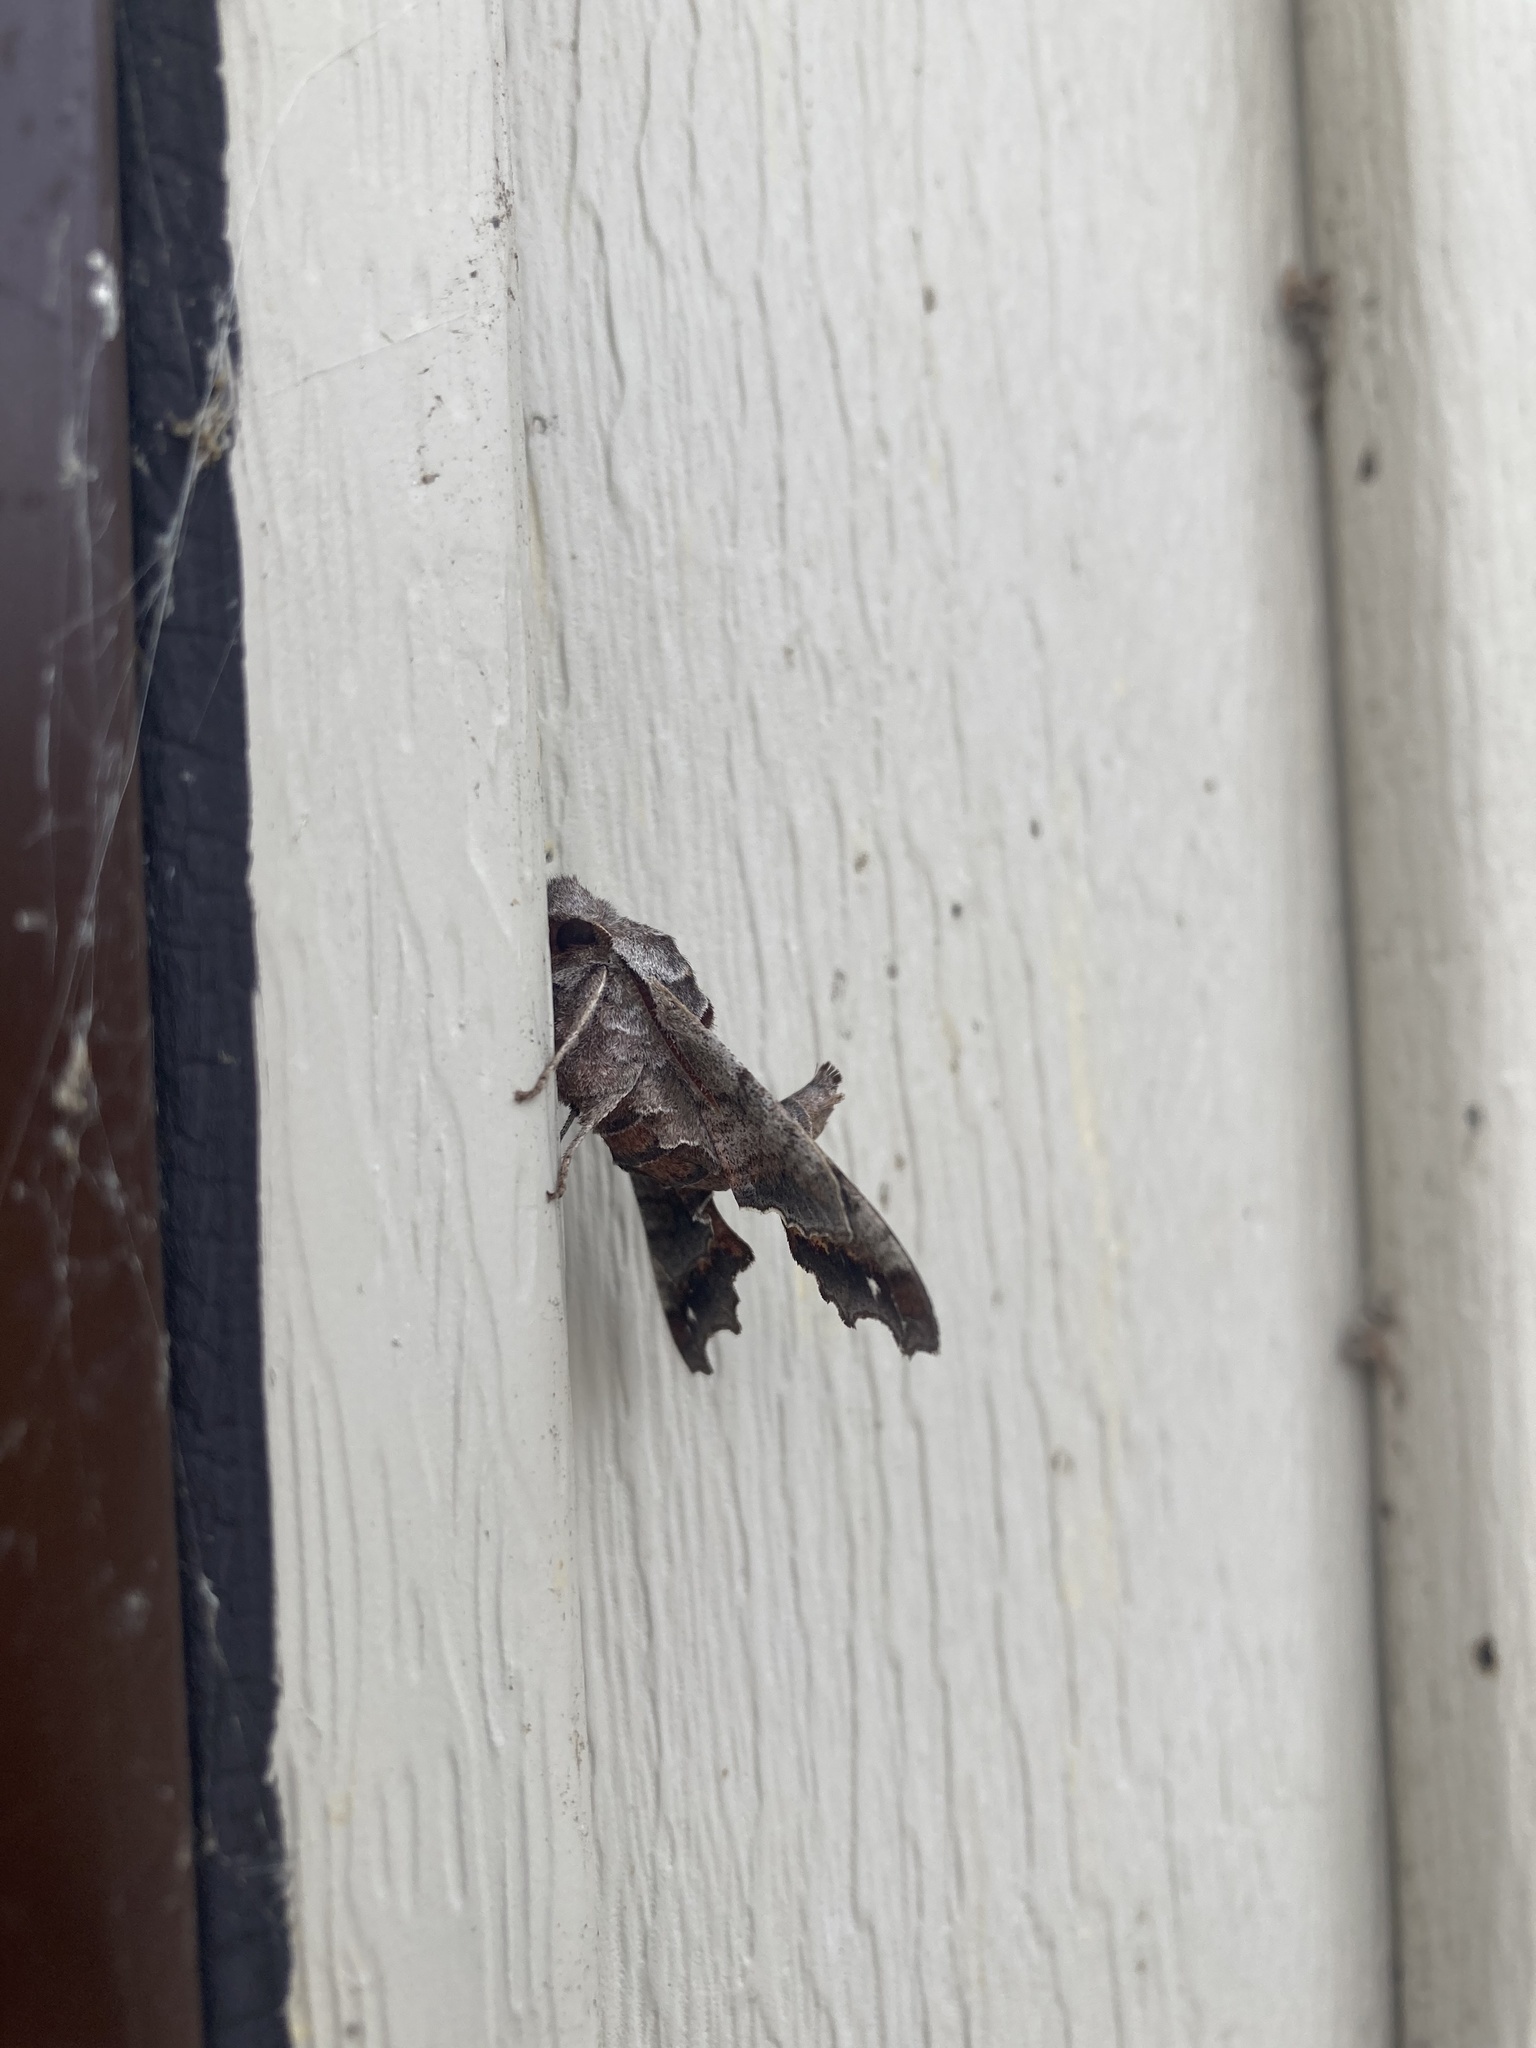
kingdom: Animalia
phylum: Arthropoda
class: Insecta
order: Lepidoptera
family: Sphingidae
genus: Deidamia
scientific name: Deidamia inscriptum
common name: Lettered sphinx
